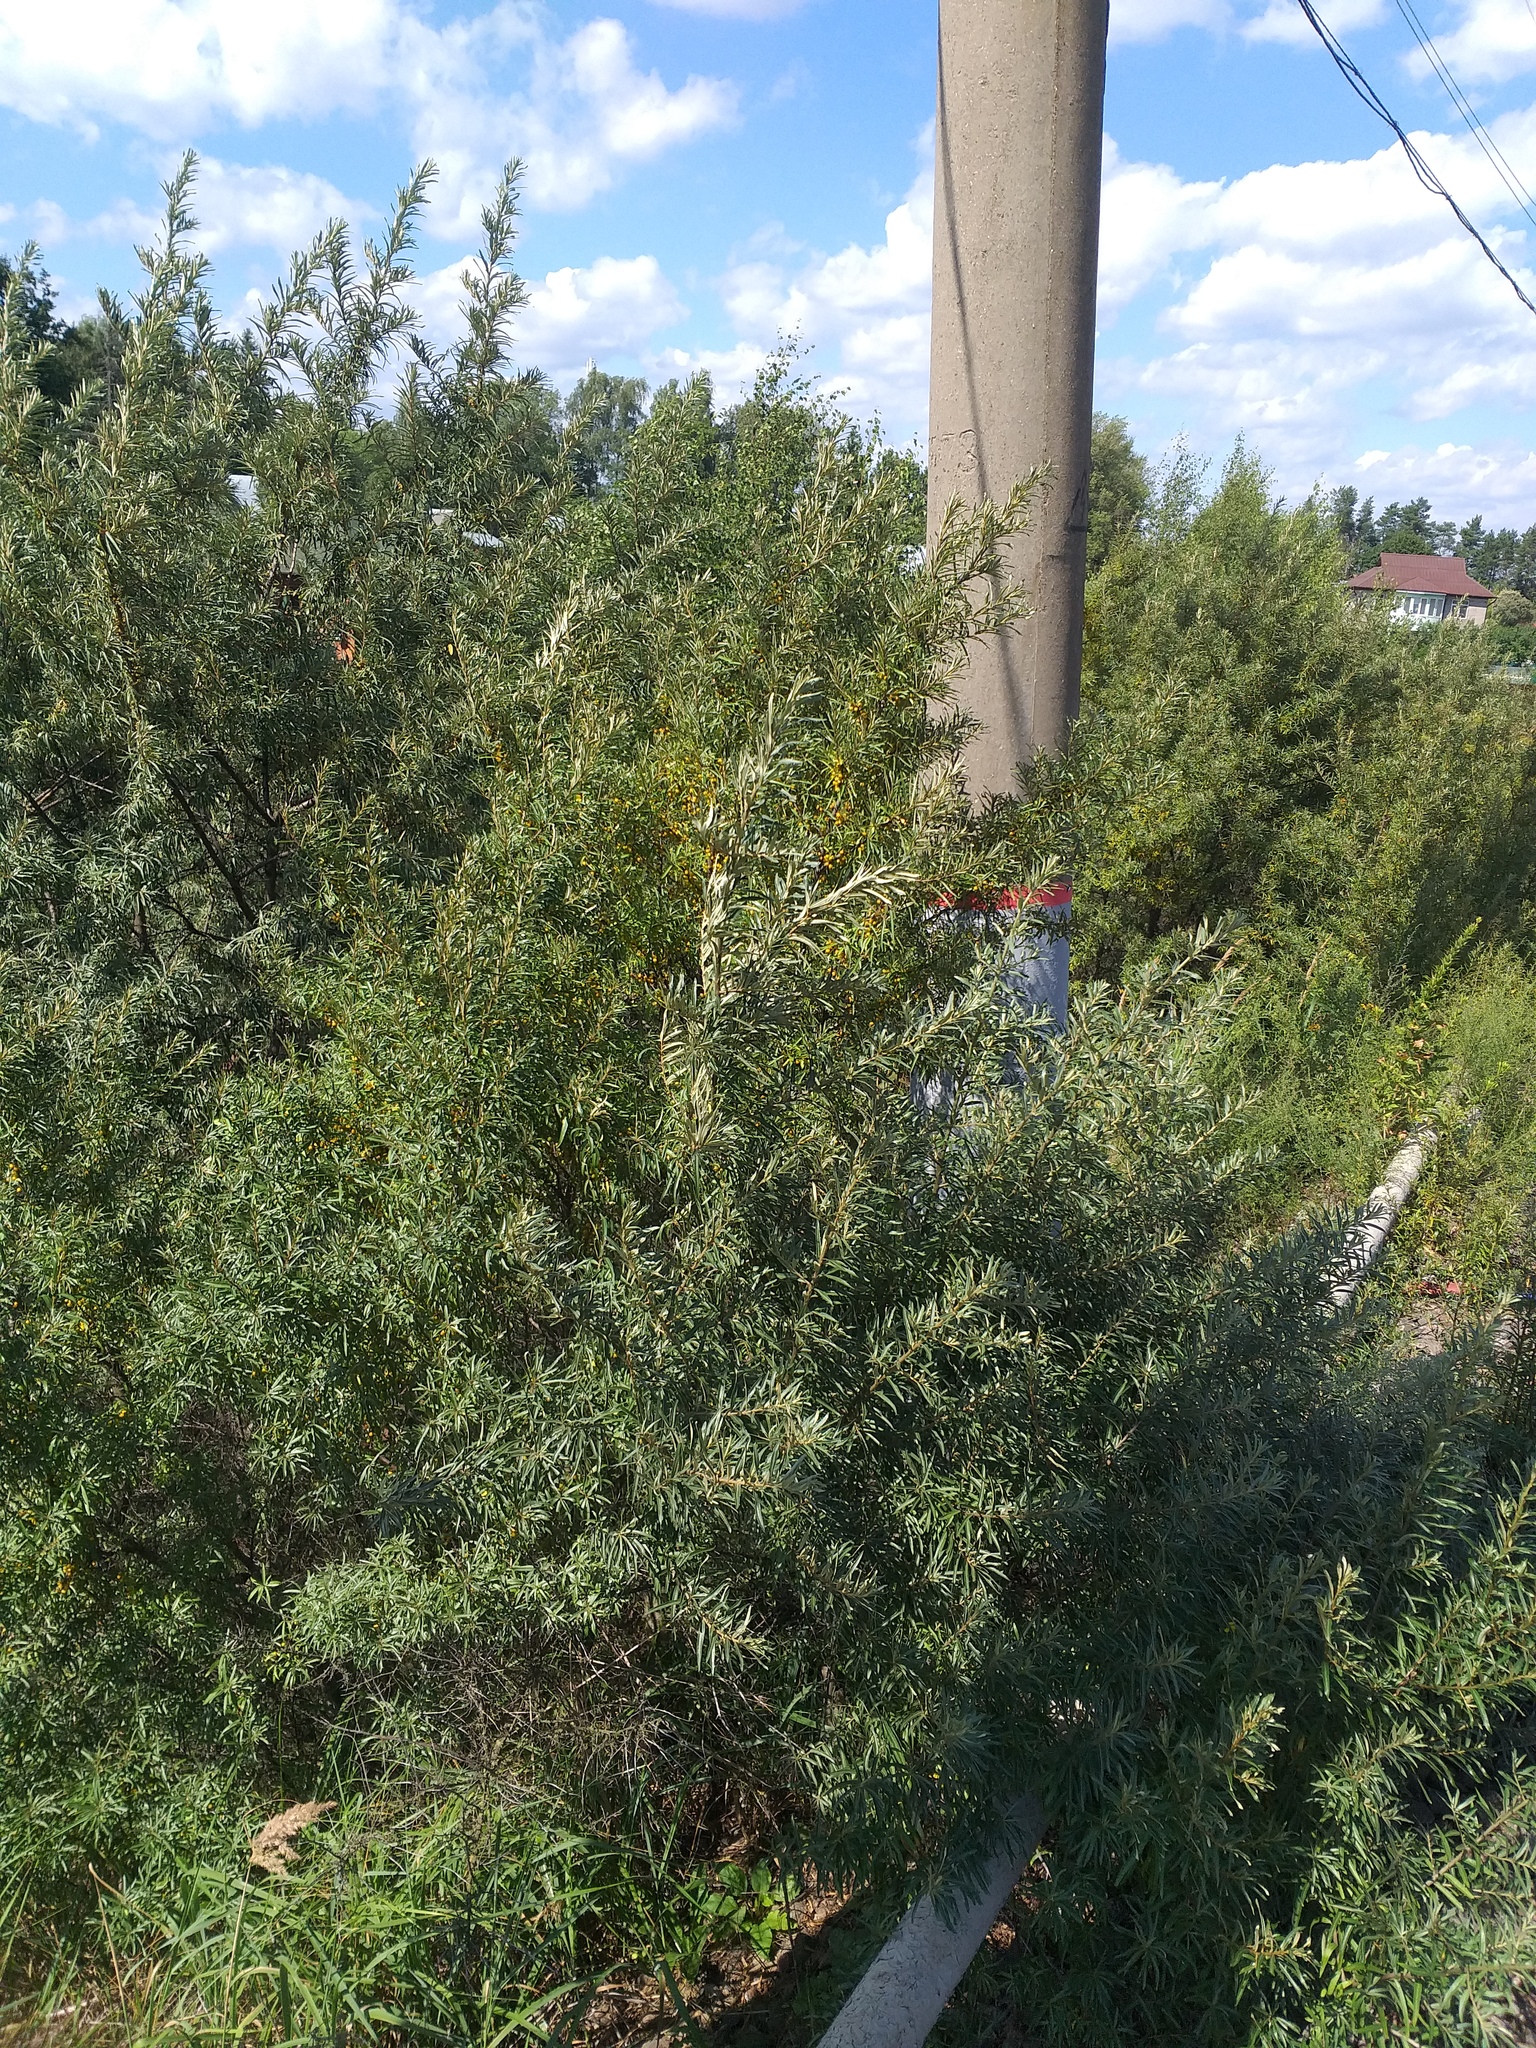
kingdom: Plantae
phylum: Tracheophyta
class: Magnoliopsida
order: Rosales
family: Elaeagnaceae
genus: Hippophae
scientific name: Hippophae rhamnoides
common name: Sea-buckthorn
